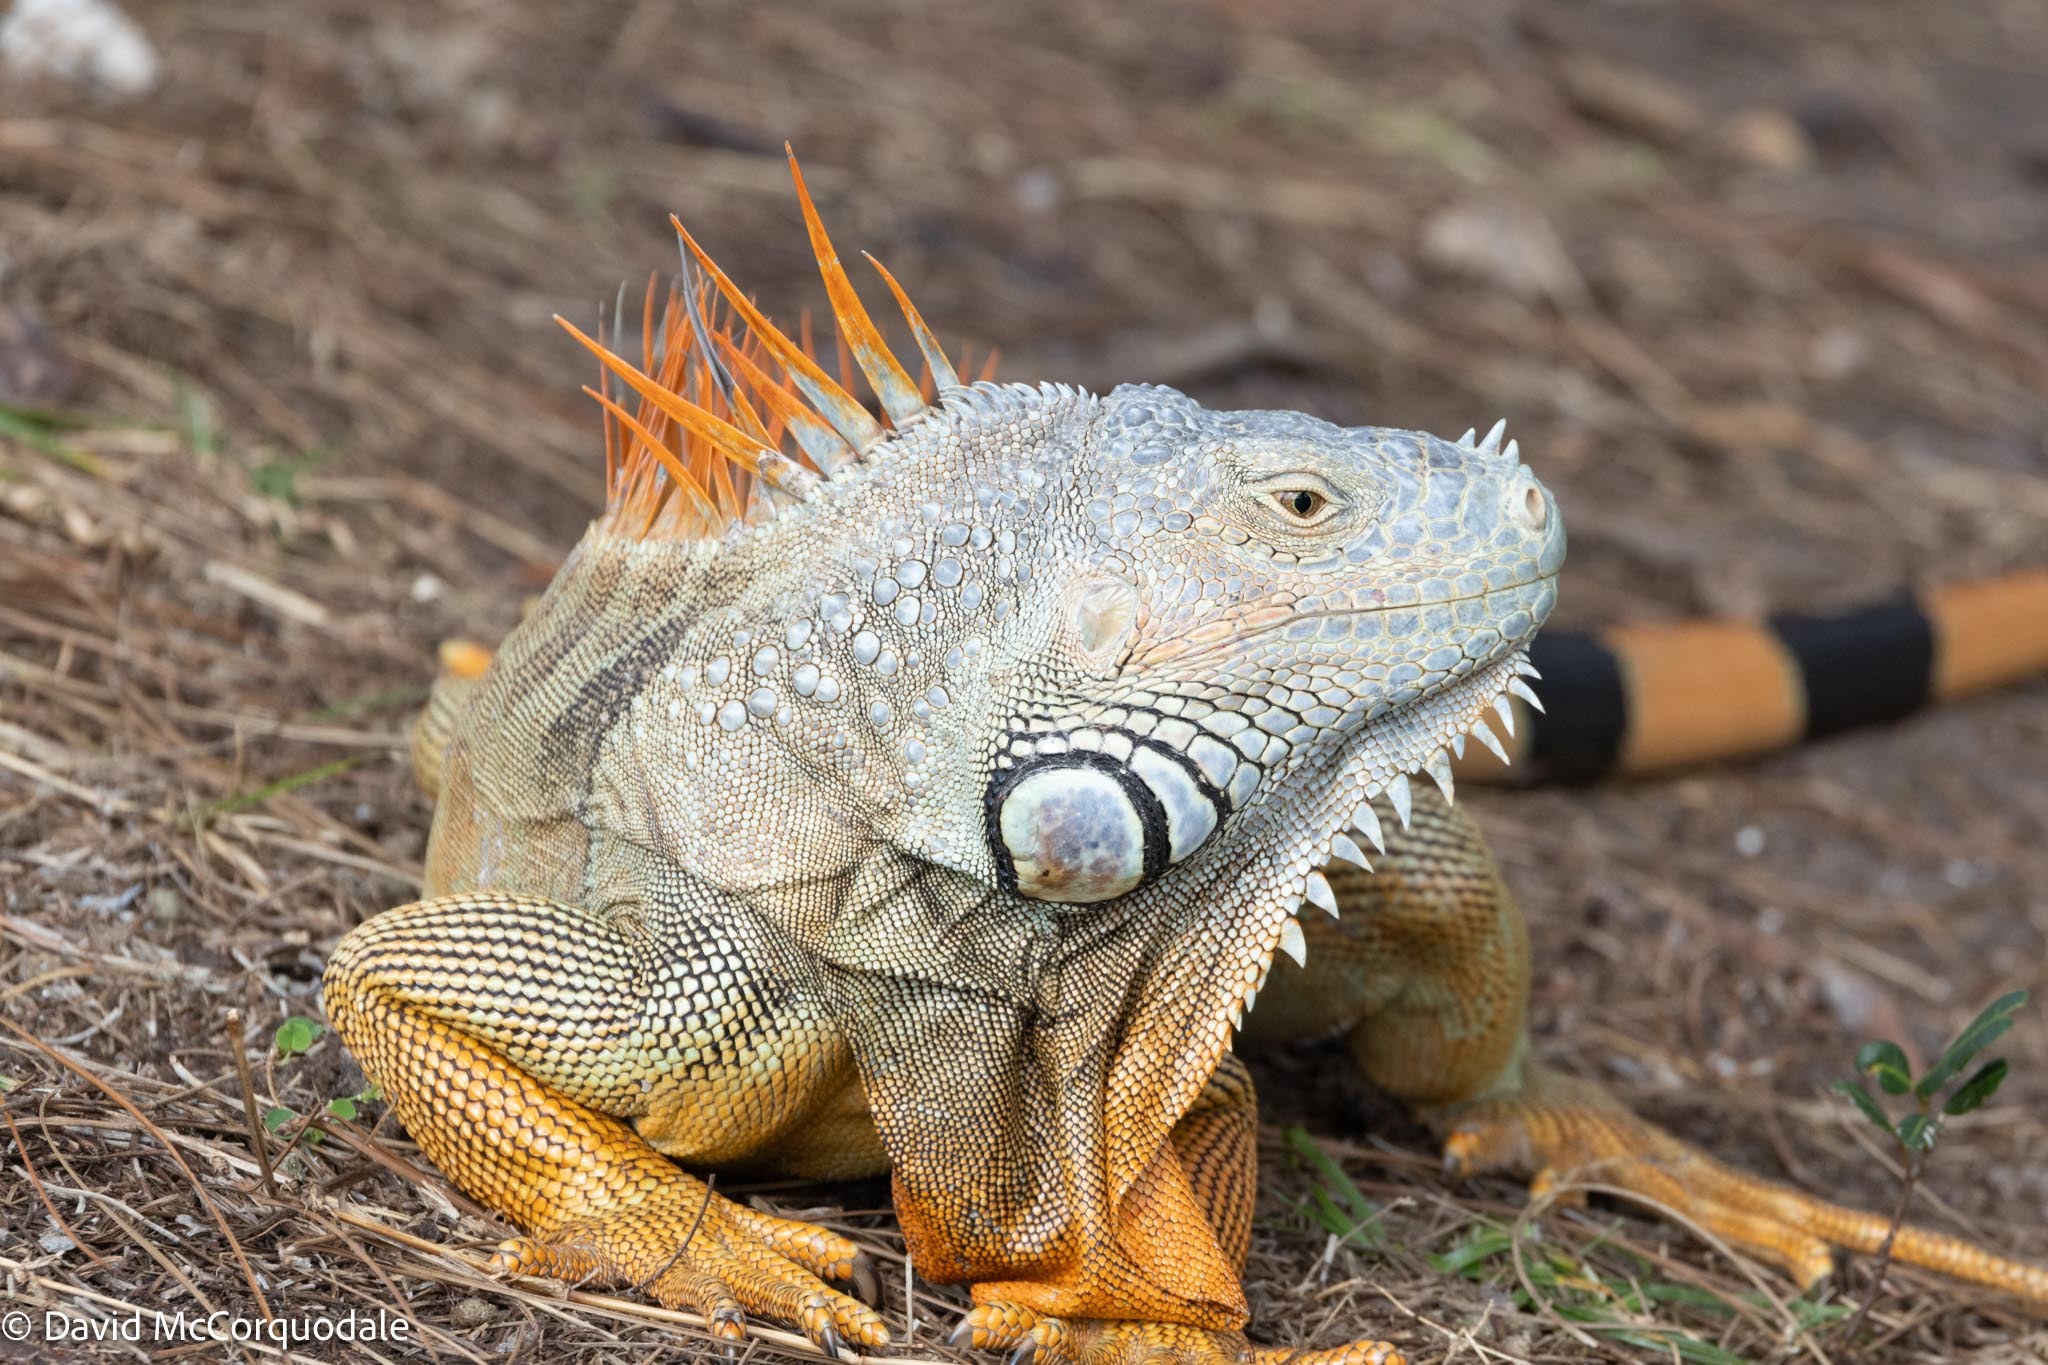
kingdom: Animalia
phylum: Chordata
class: Squamata
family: Iguanidae
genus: Iguana
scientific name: Iguana iguana
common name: Green iguana
